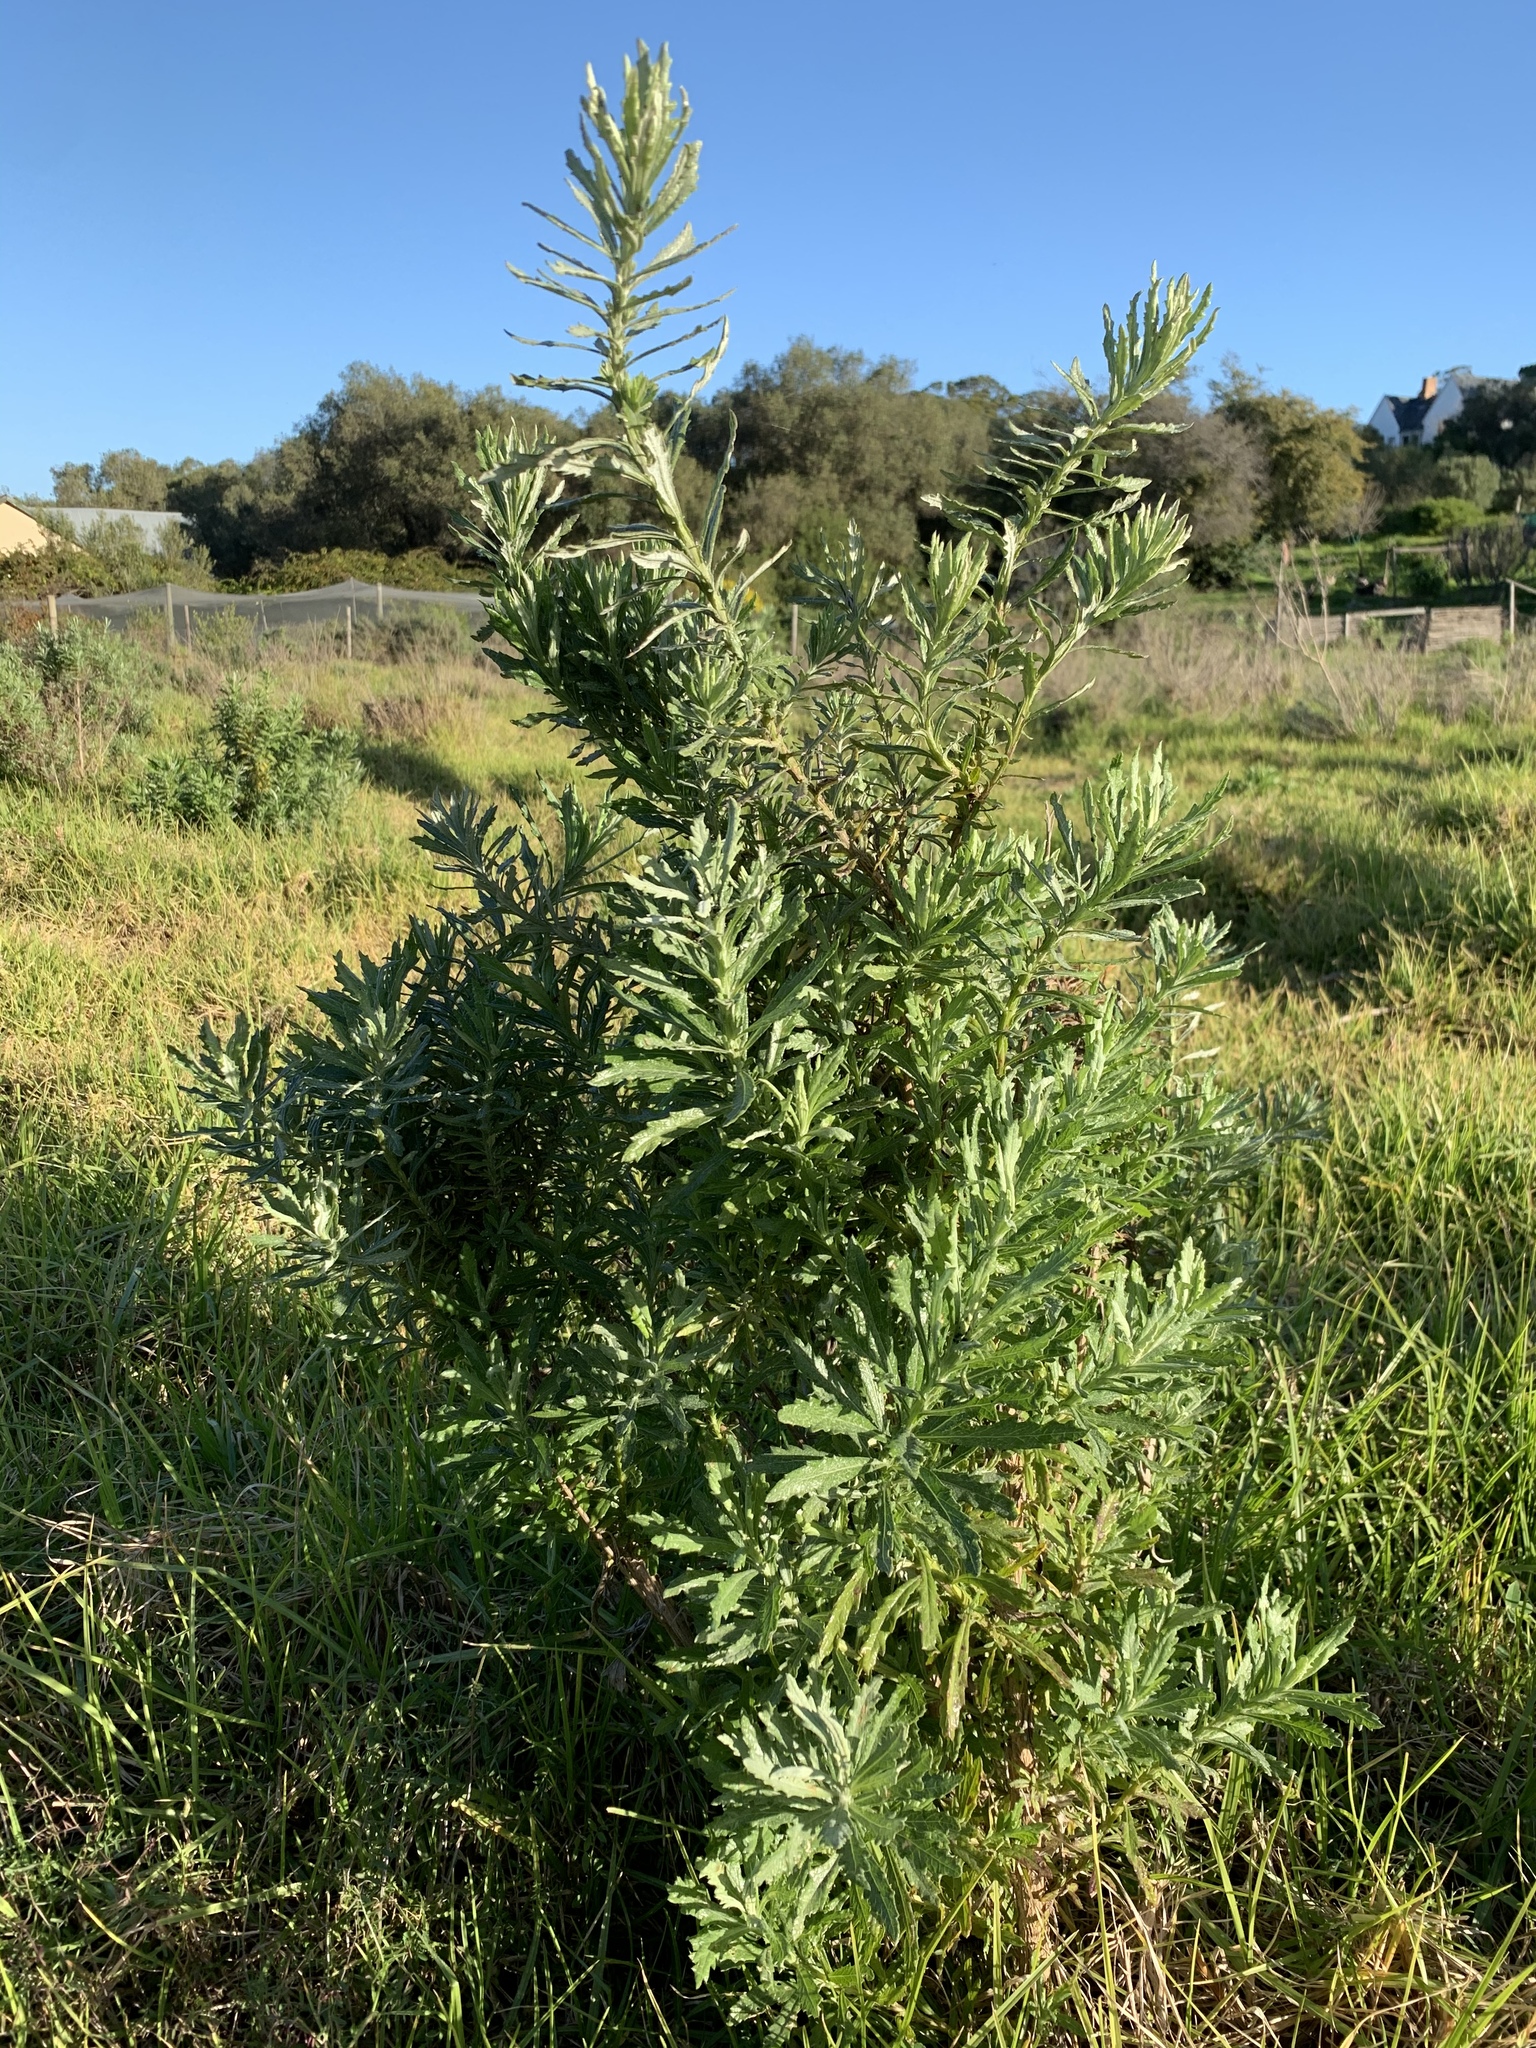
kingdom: Plantae
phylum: Tracheophyta
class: Magnoliopsida
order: Asterales
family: Asteraceae
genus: Senecio
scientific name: Senecio pterophorus
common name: Shoddy ragwort
